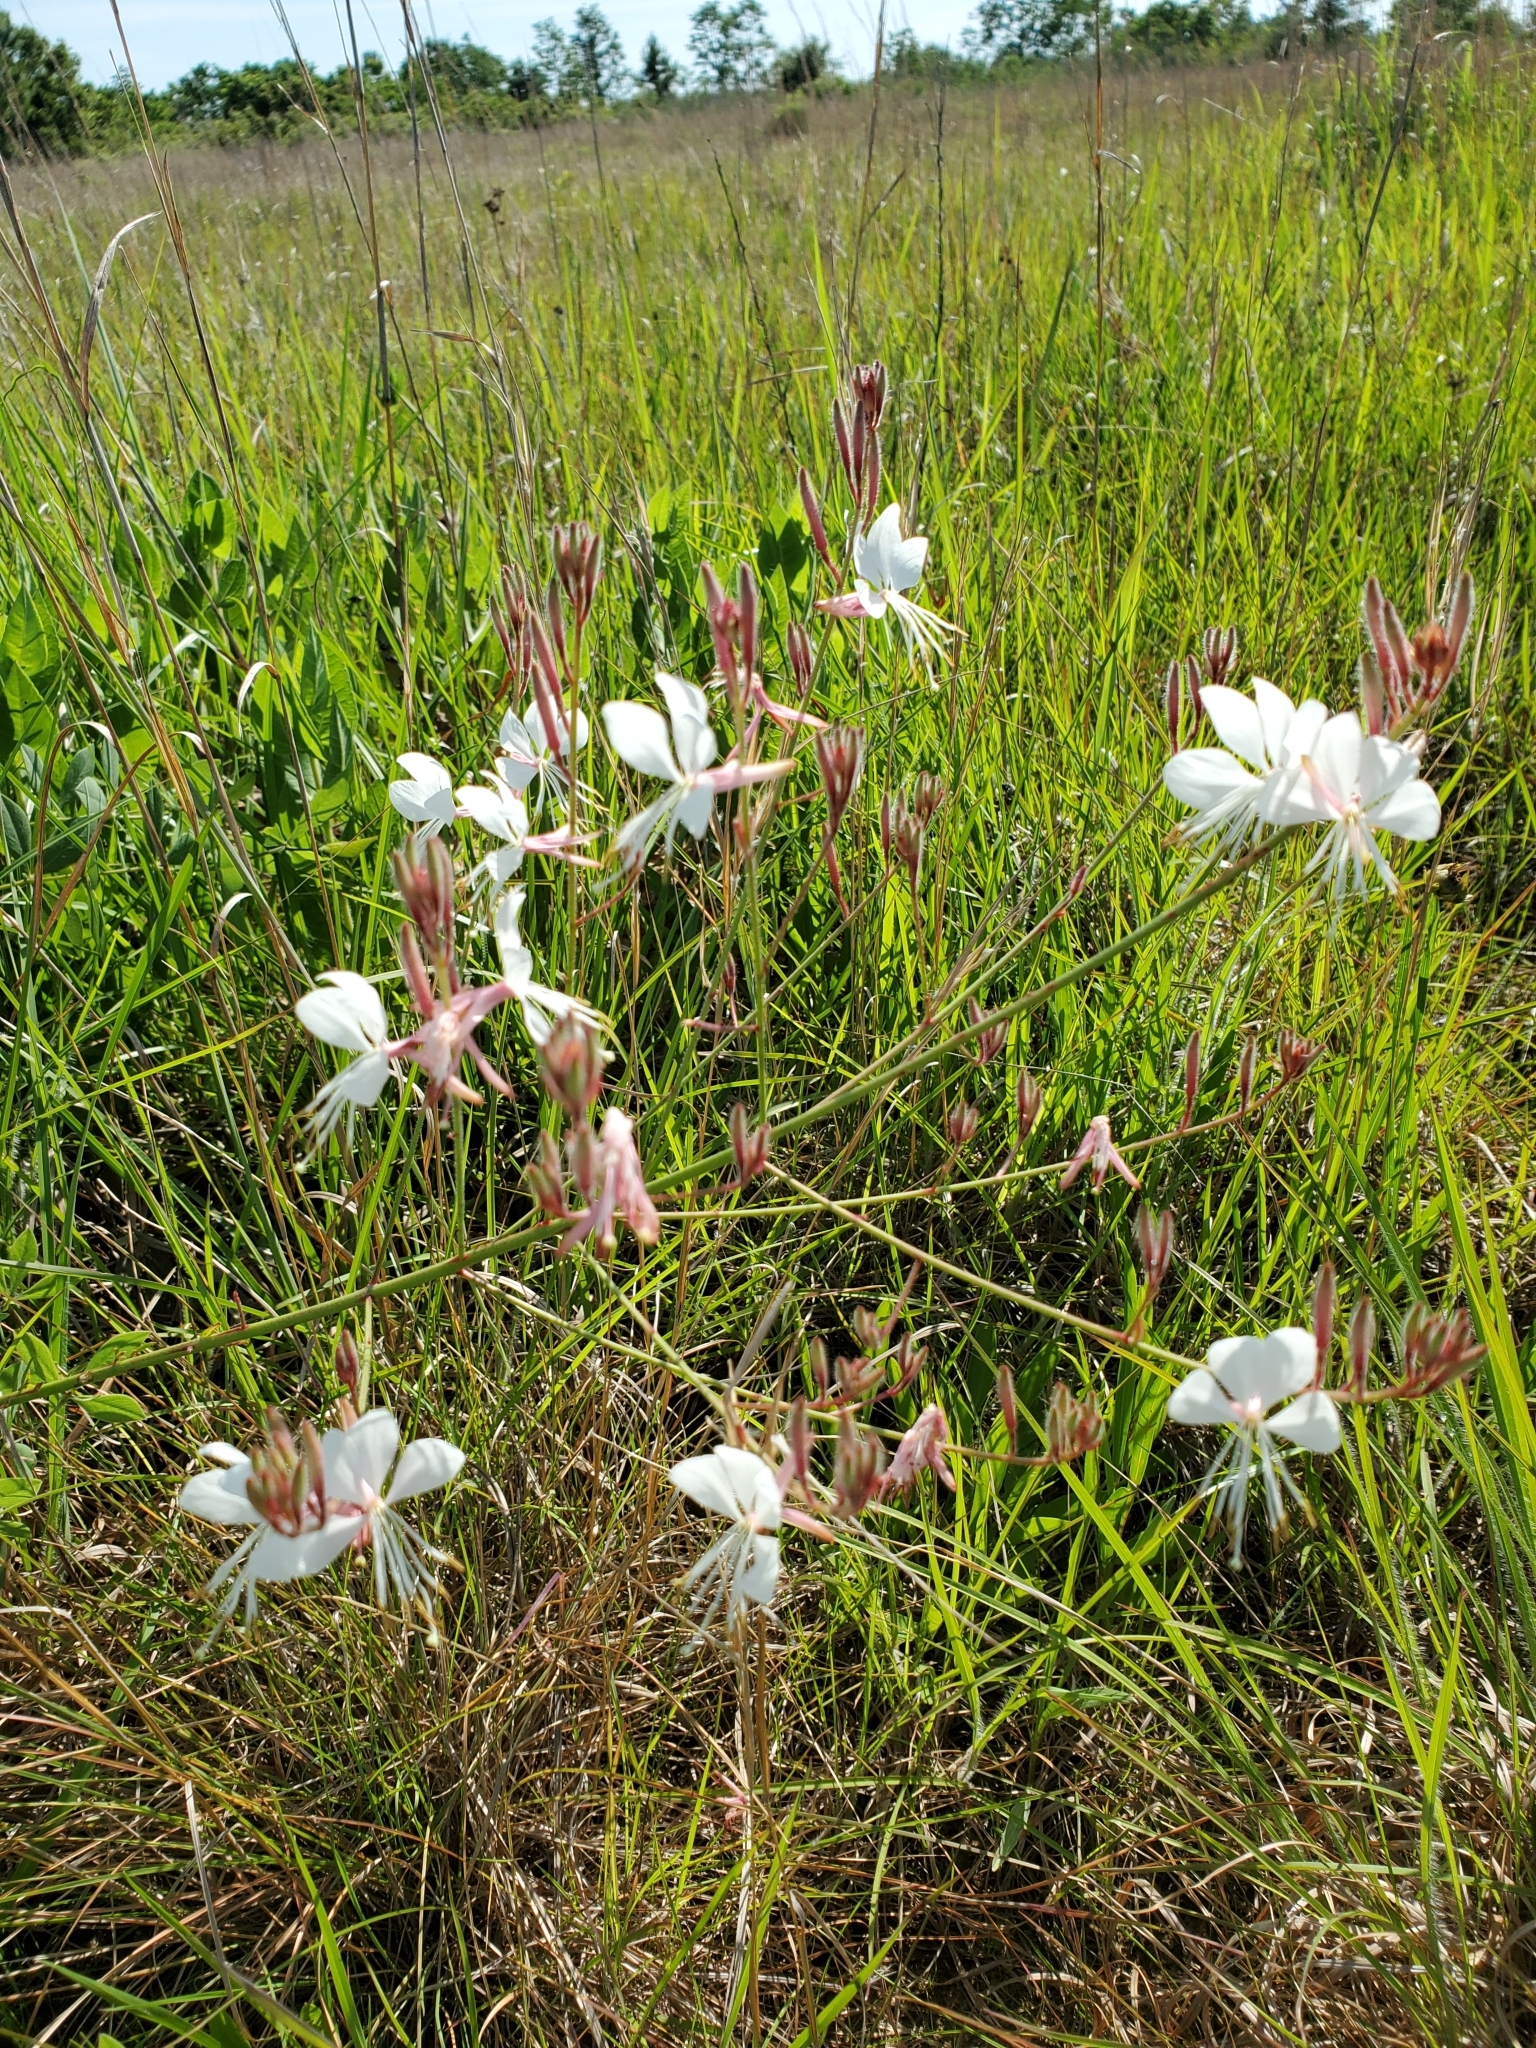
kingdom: Plantae
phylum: Tracheophyta
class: Magnoliopsida
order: Myrtales
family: Onagraceae
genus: Oenothera
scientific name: Oenothera lindheimeri
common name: Lindheimer's beeblossom
